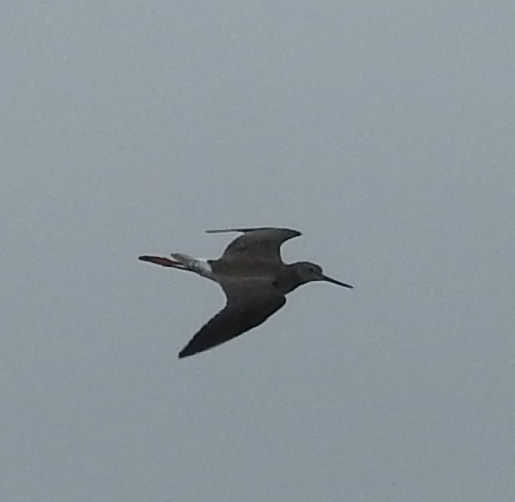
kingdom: Animalia
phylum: Chordata
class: Aves
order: Charadriiformes
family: Scolopacidae
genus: Tringa
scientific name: Tringa melanoleuca
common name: Greater yellowlegs
